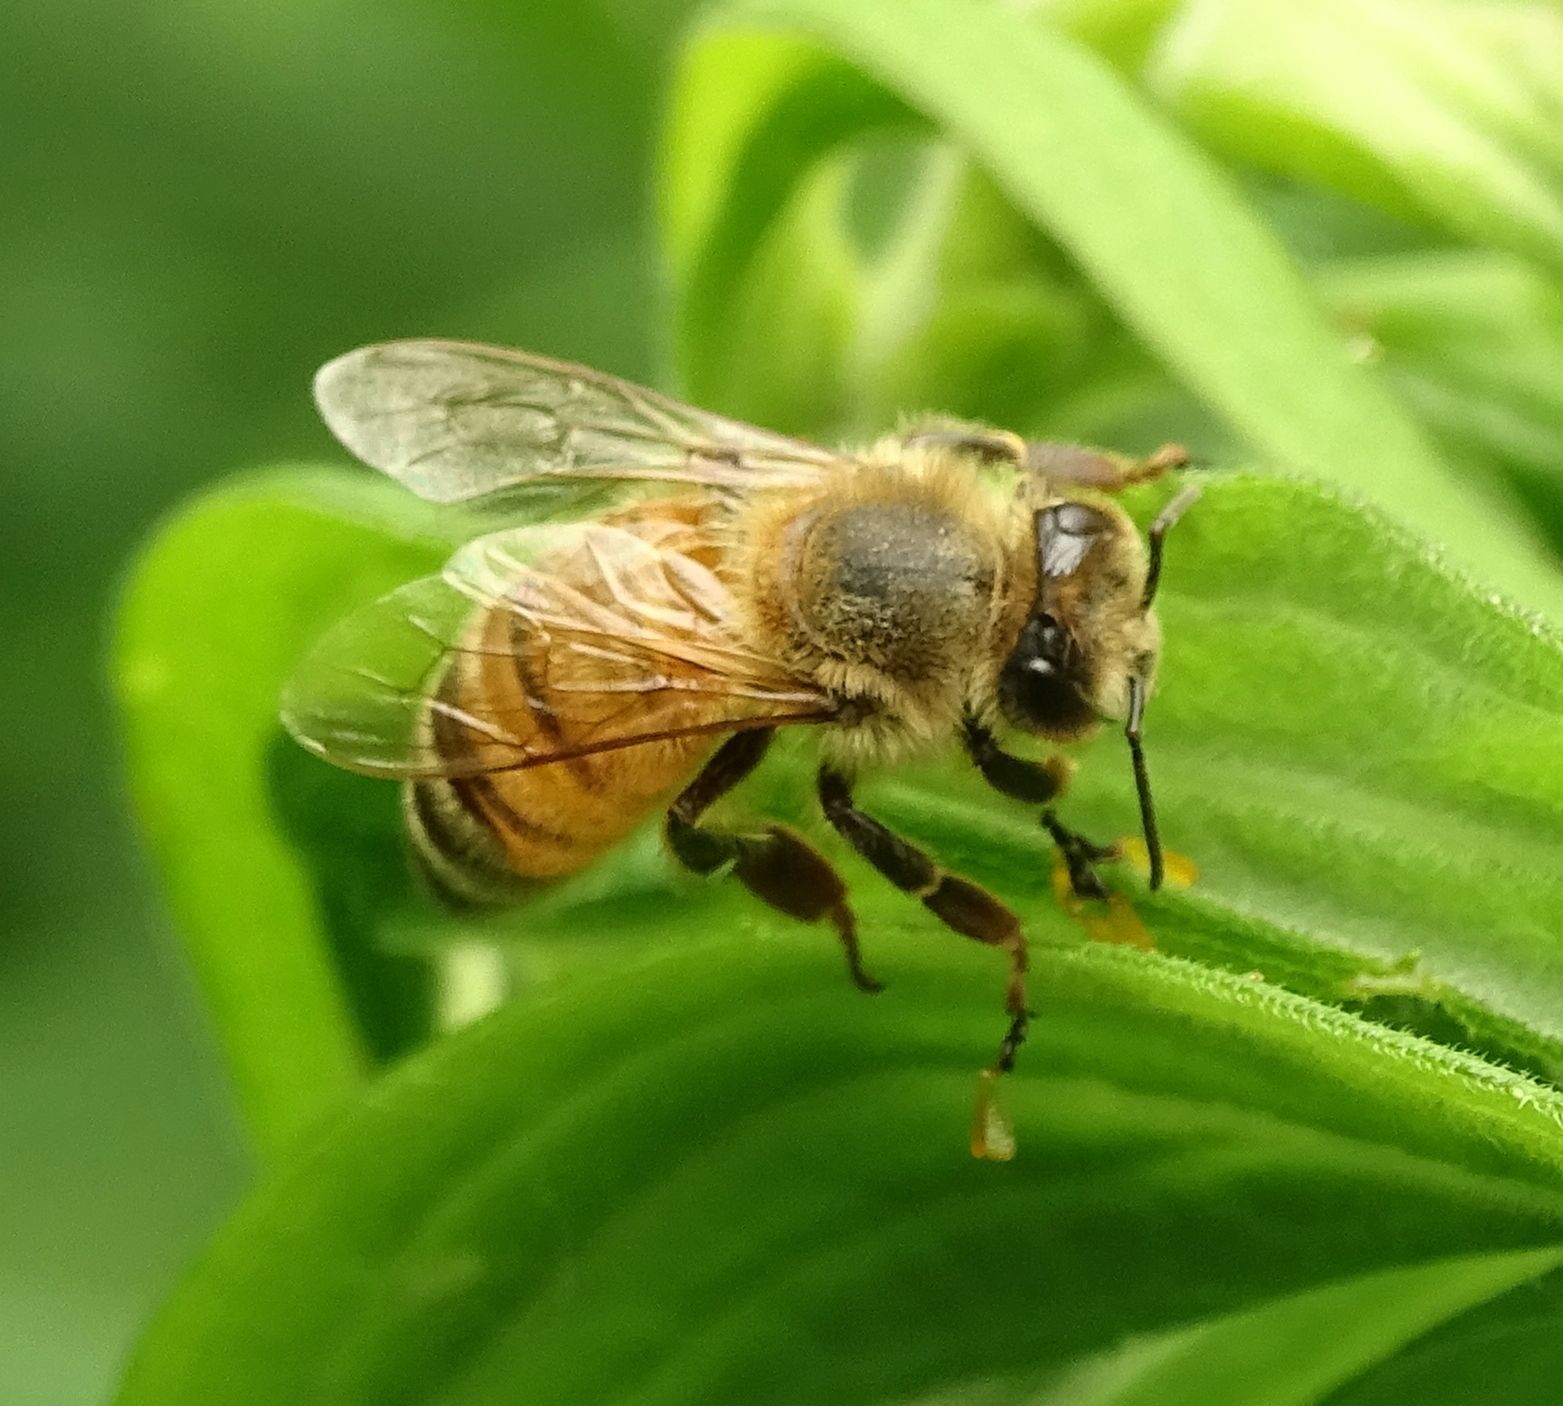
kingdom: Animalia
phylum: Arthropoda
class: Insecta
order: Hymenoptera
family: Apidae
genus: Apis
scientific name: Apis mellifera
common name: Honey bee
